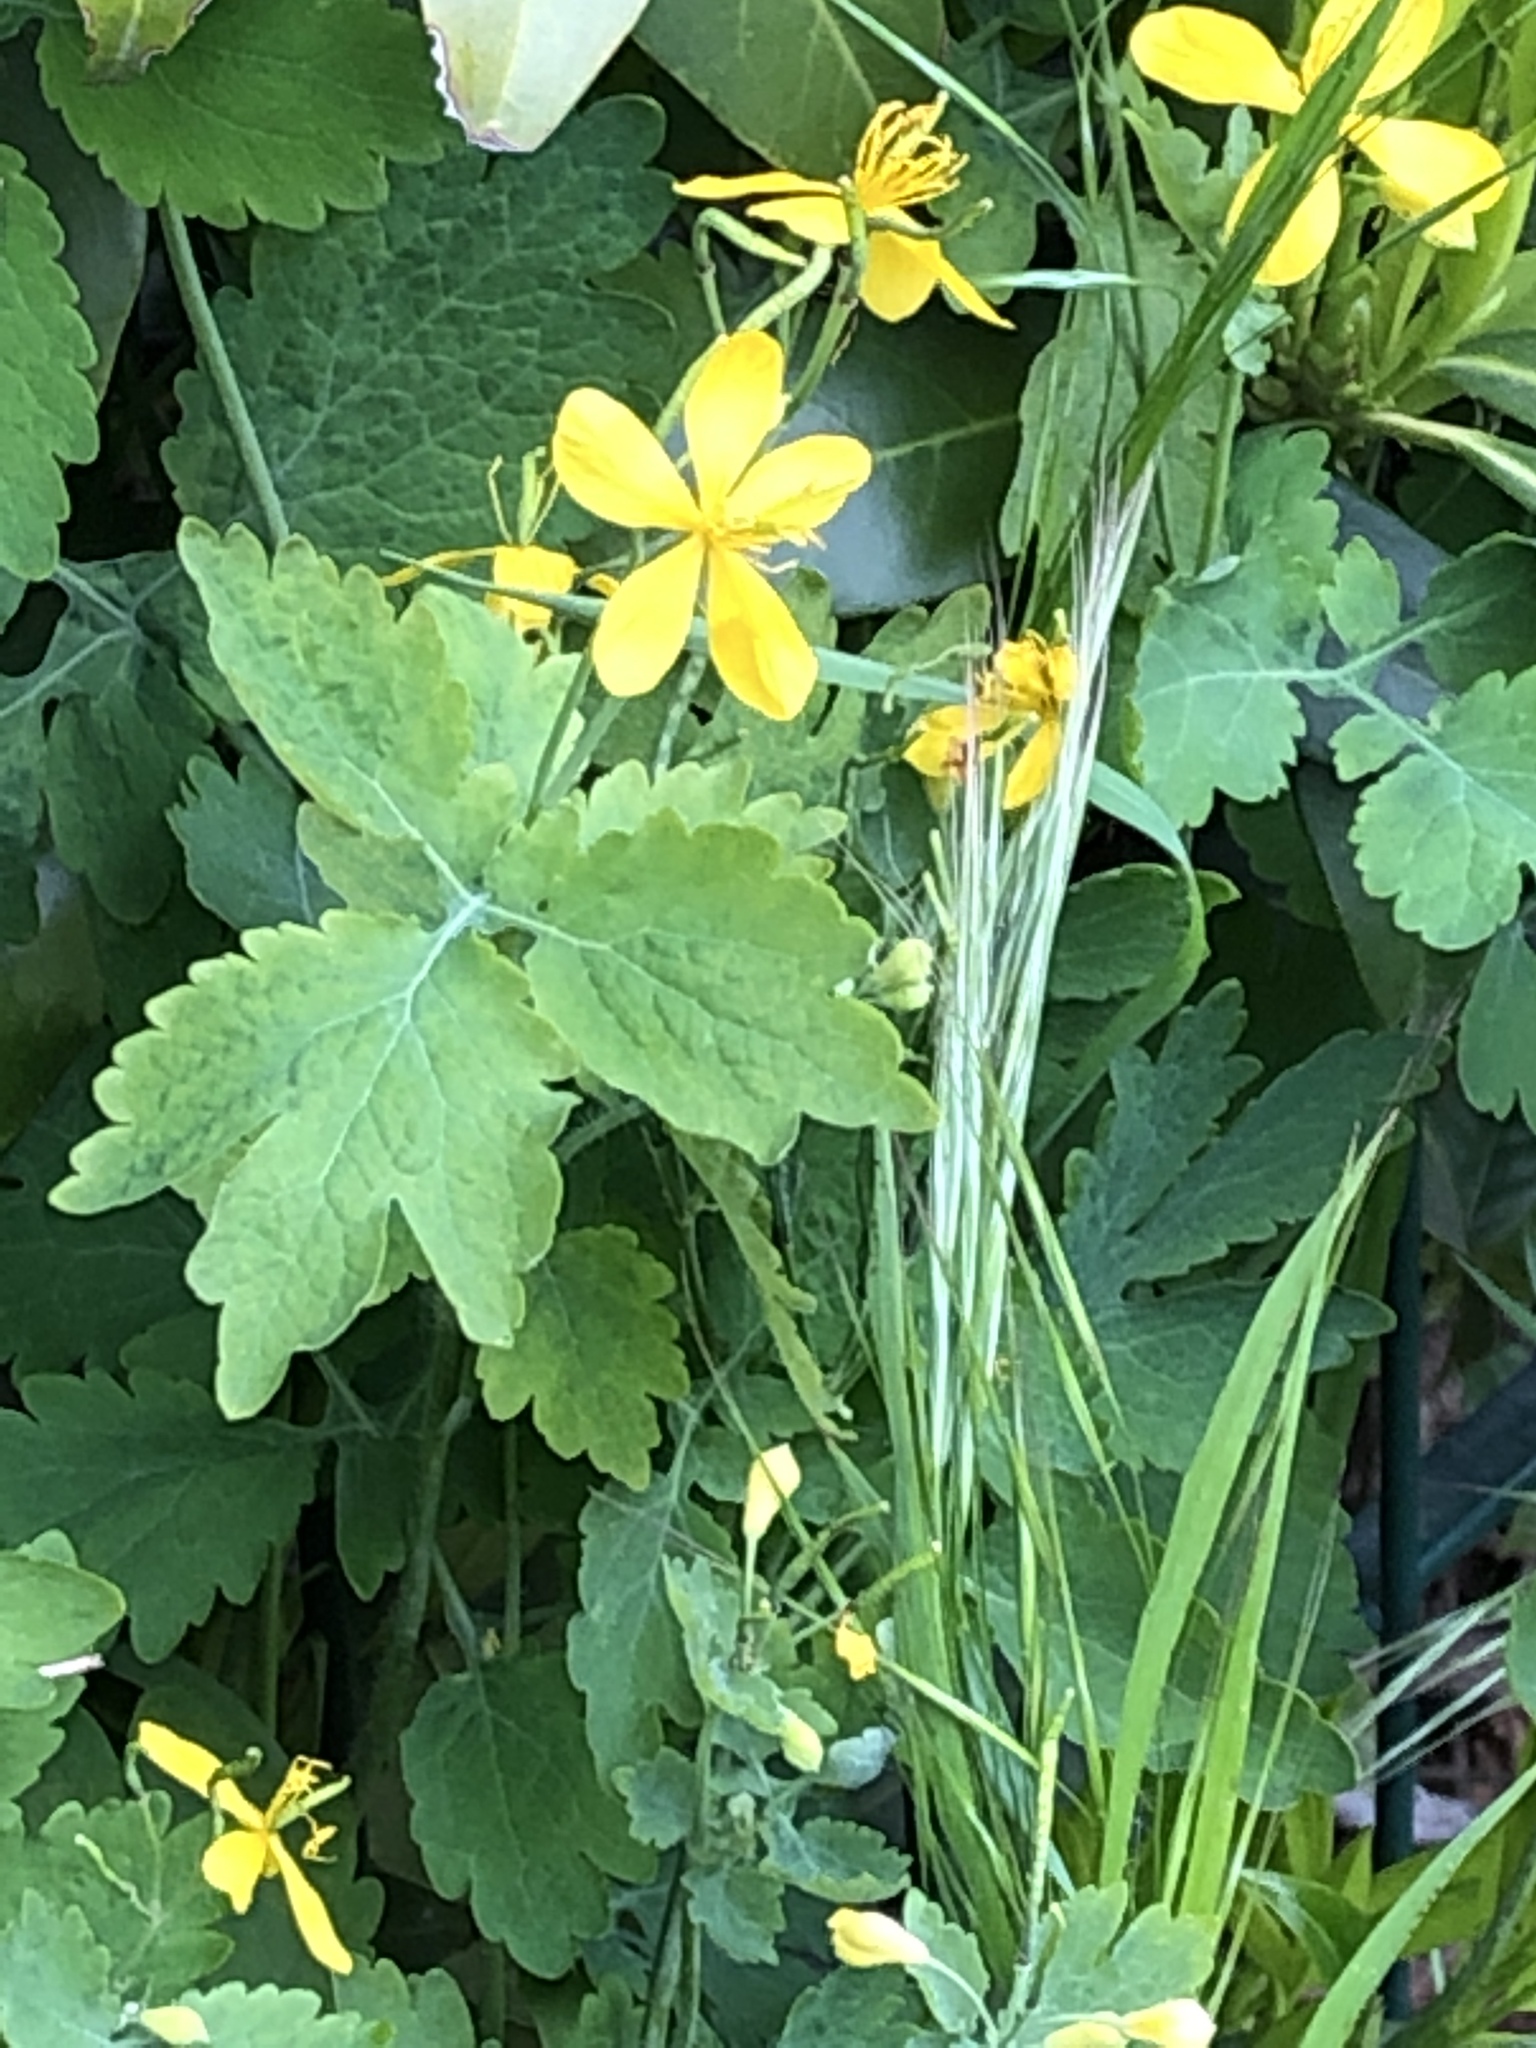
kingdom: Plantae
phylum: Tracheophyta
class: Magnoliopsida
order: Ranunculales
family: Papaveraceae
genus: Chelidonium
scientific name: Chelidonium majus
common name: Greater celandine
